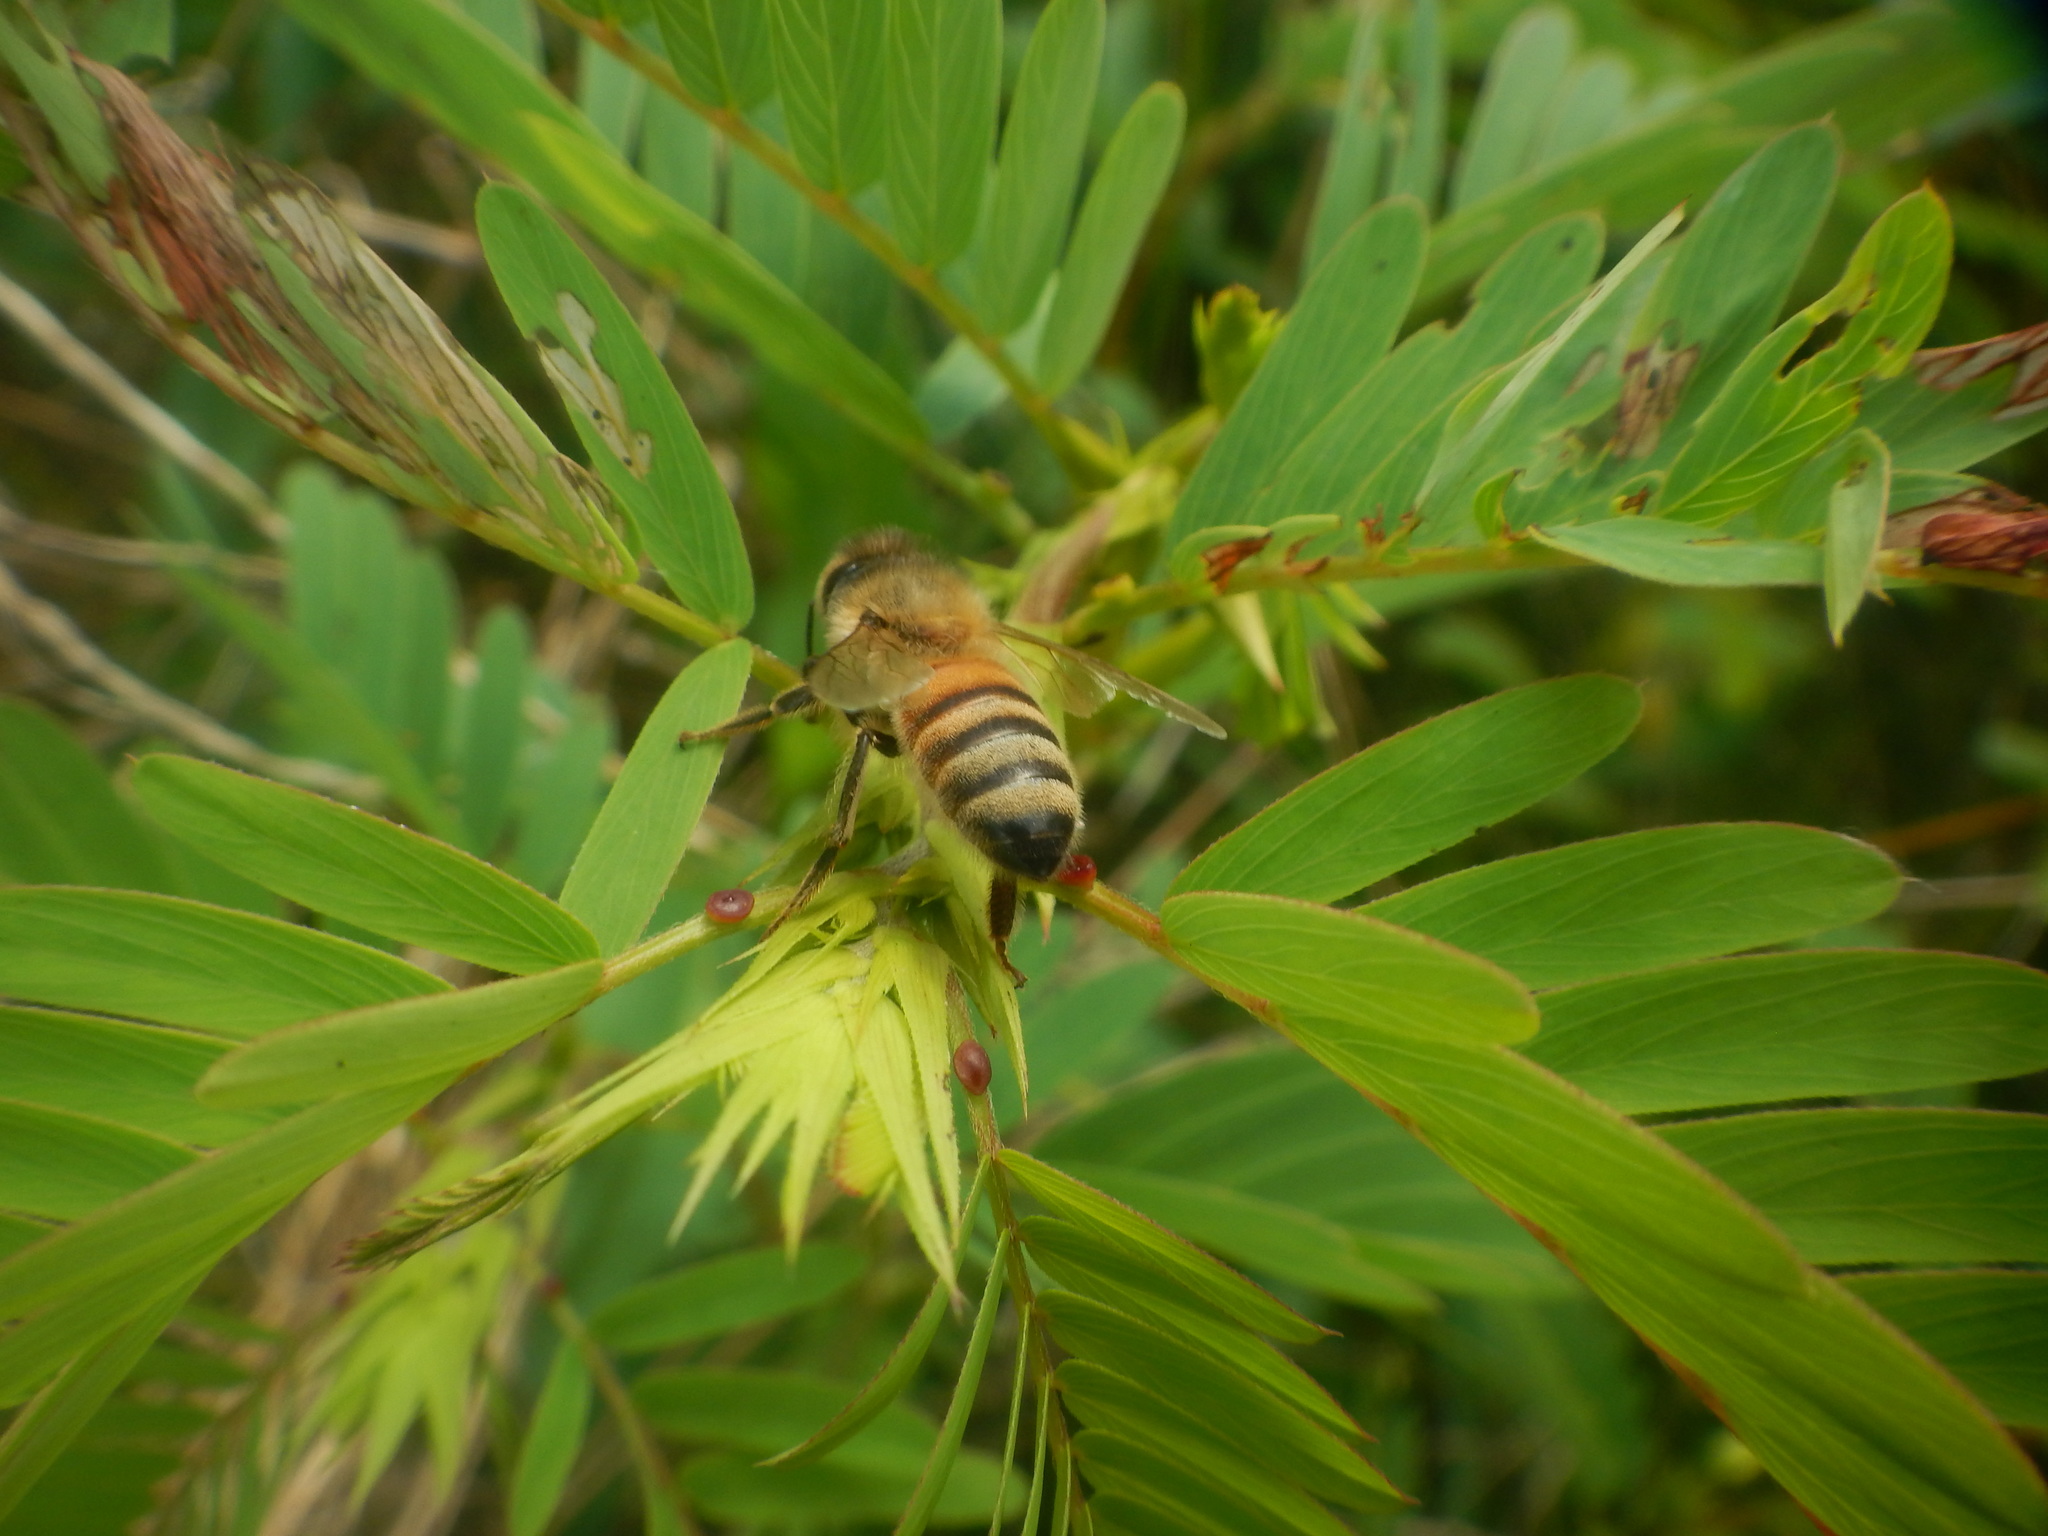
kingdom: Animalia
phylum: Arthropoda
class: Insecta
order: Hymenoptera
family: Apidae
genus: Apis
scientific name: Apis mellifera
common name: Honey bee
